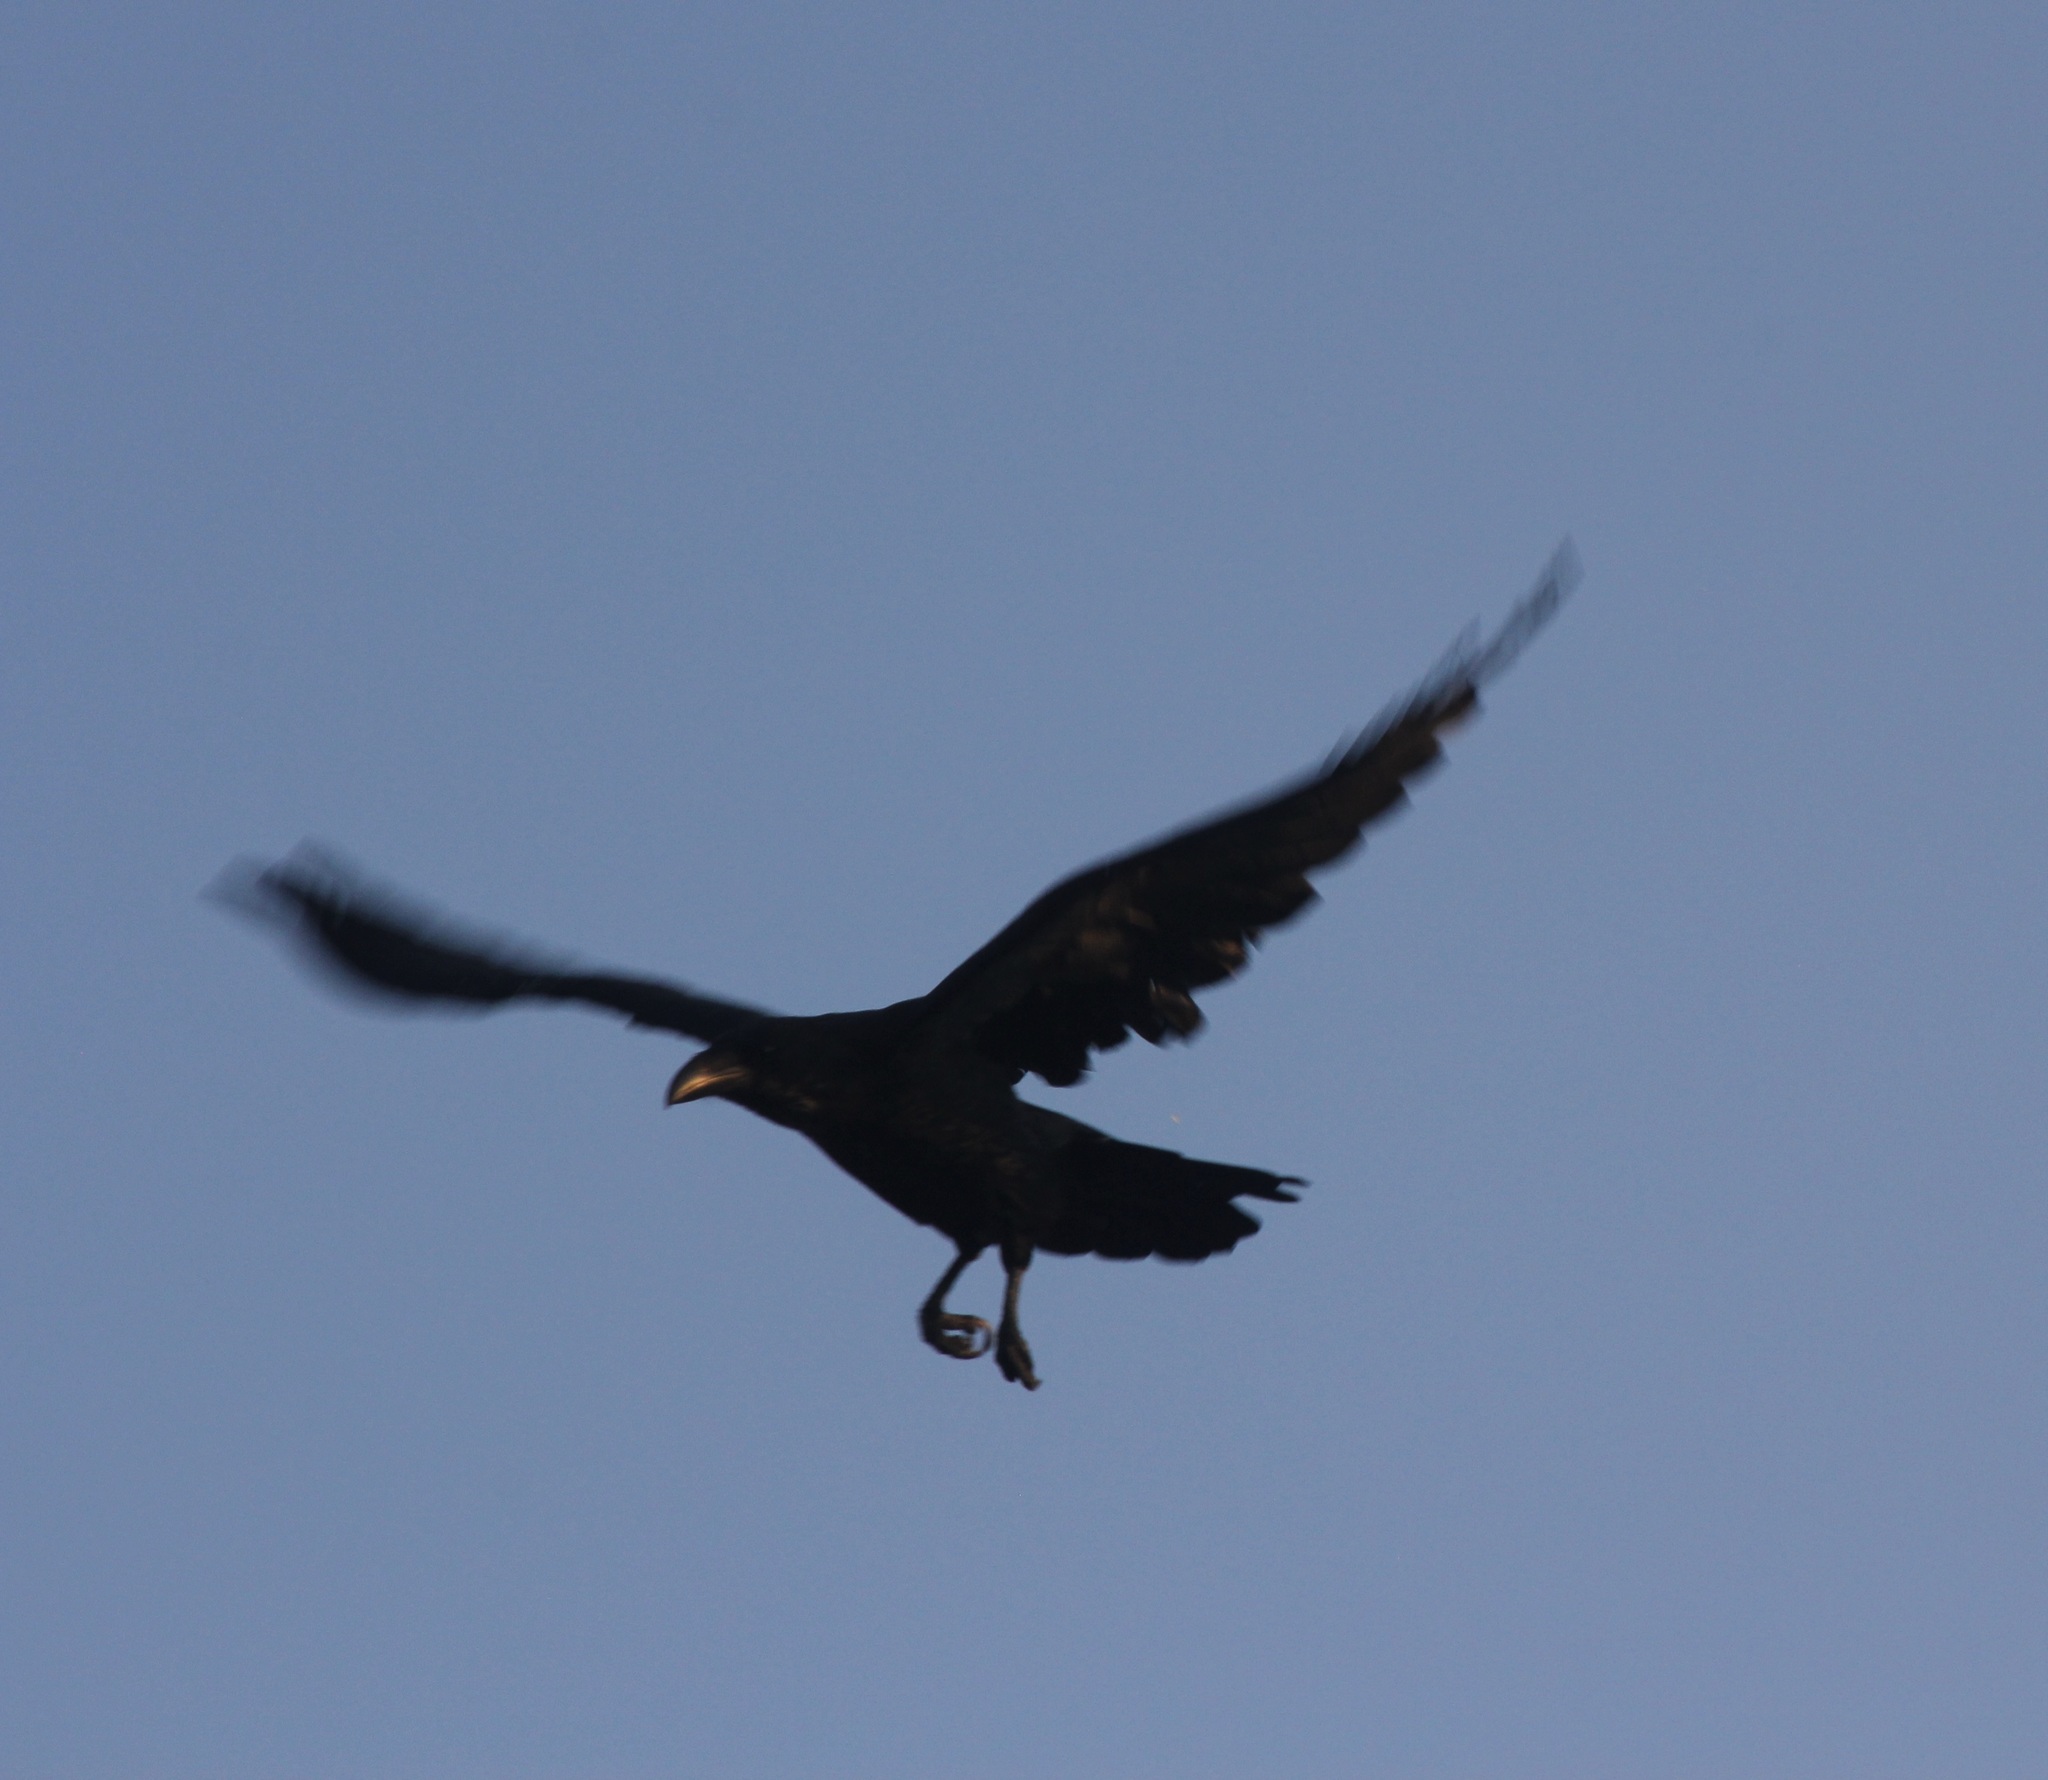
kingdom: Animalia
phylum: Chordata
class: Aves
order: Passeriformes
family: Corvidae
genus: Corvus
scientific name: Corvus corax
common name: Common raven
